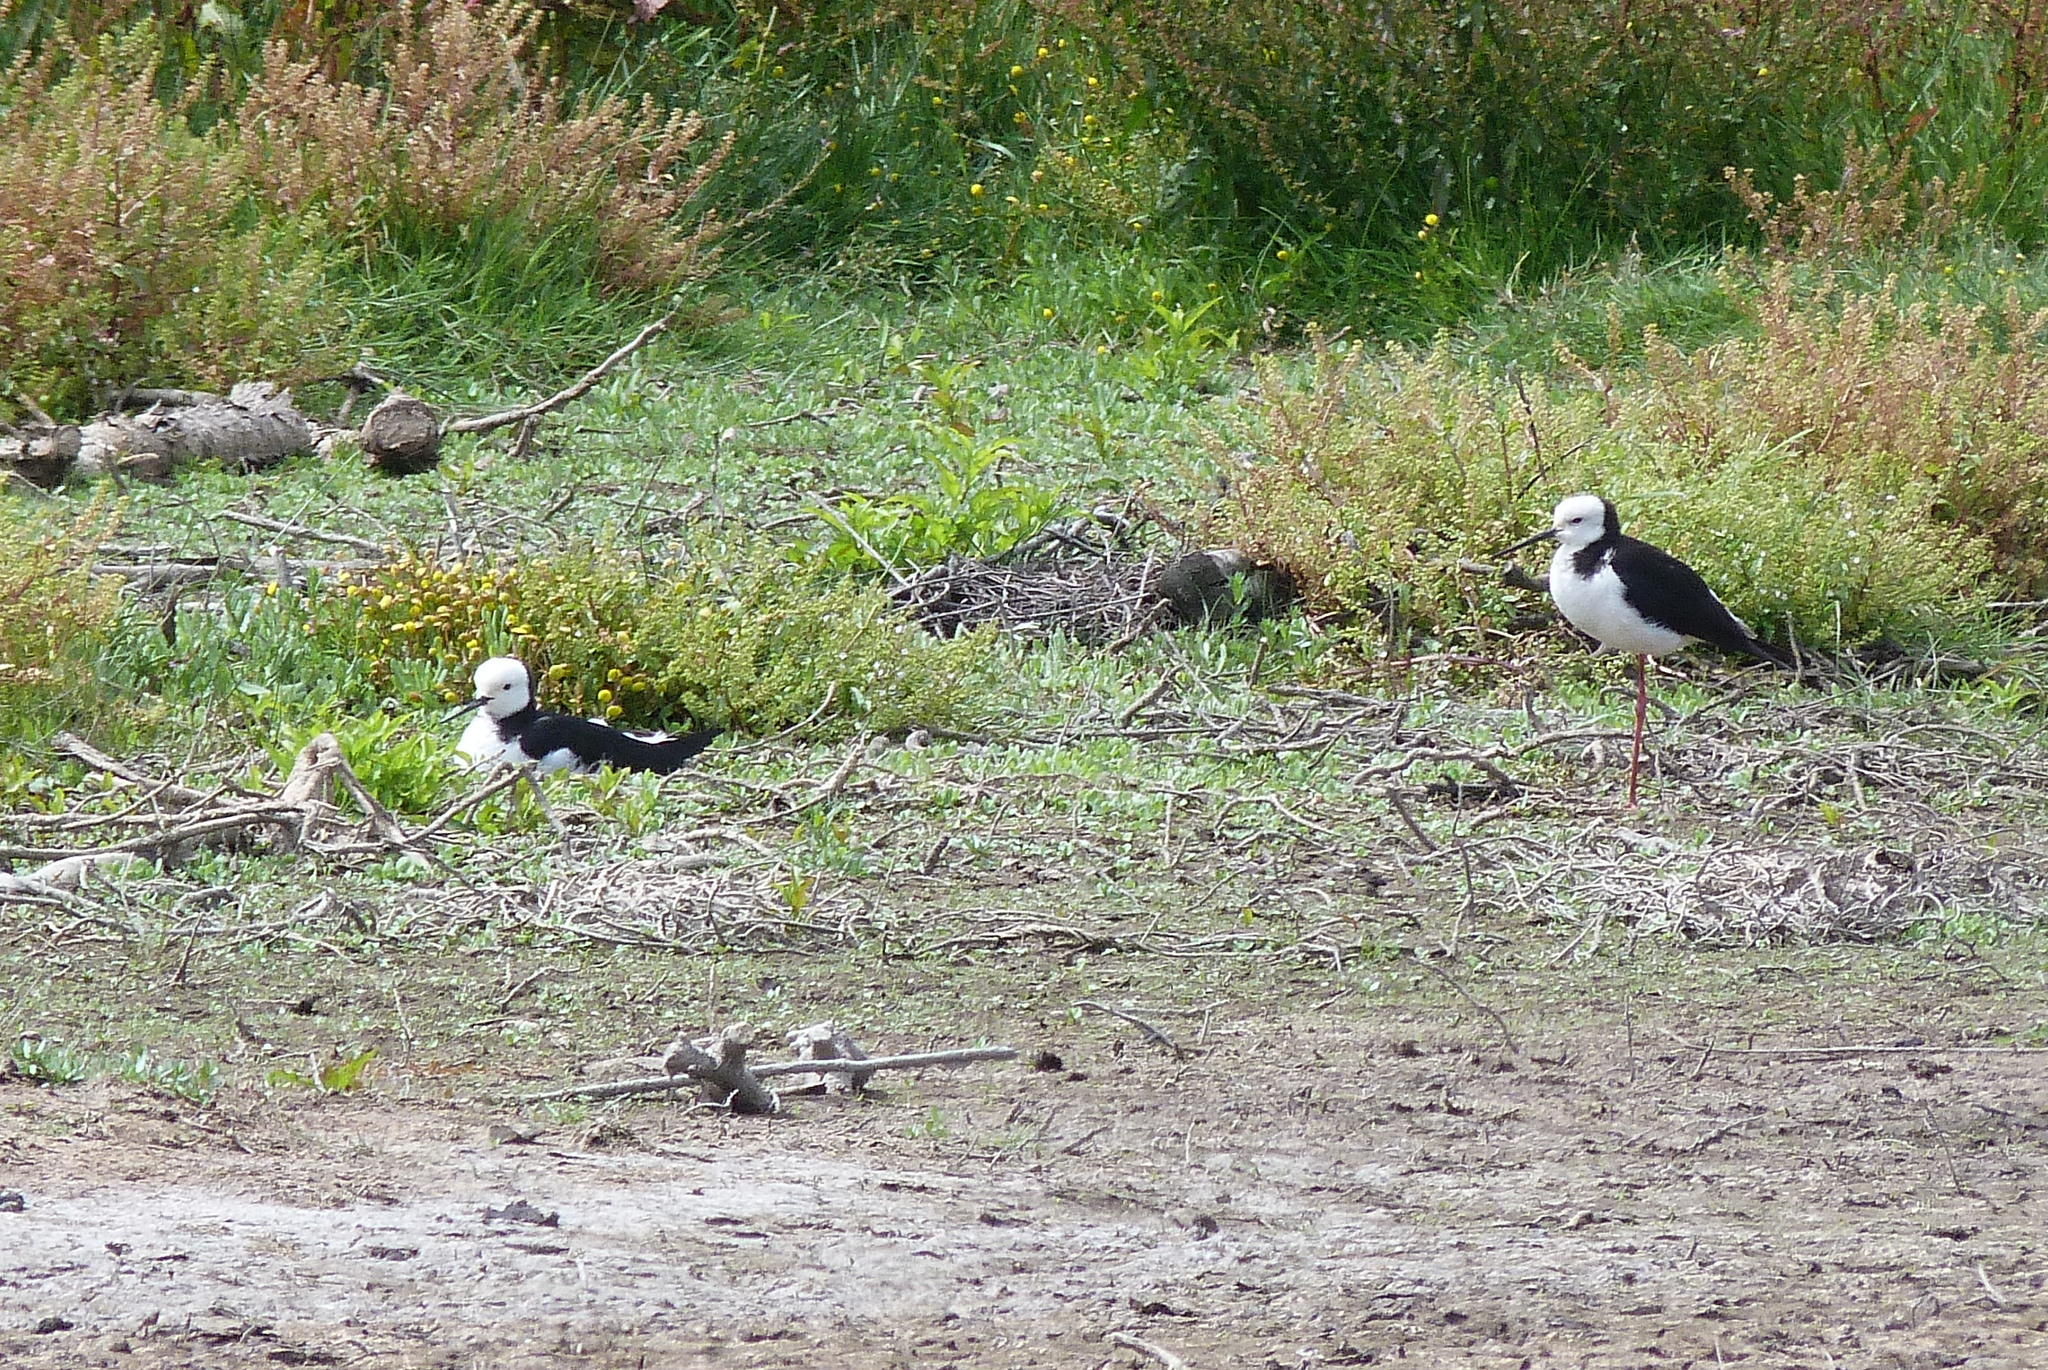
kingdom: Animalia
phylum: Chordata
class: Aves
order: Charadriiformes
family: Recurvirostridae
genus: Himantopus
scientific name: Himantopus leucocephalus
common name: White-headed stilt
